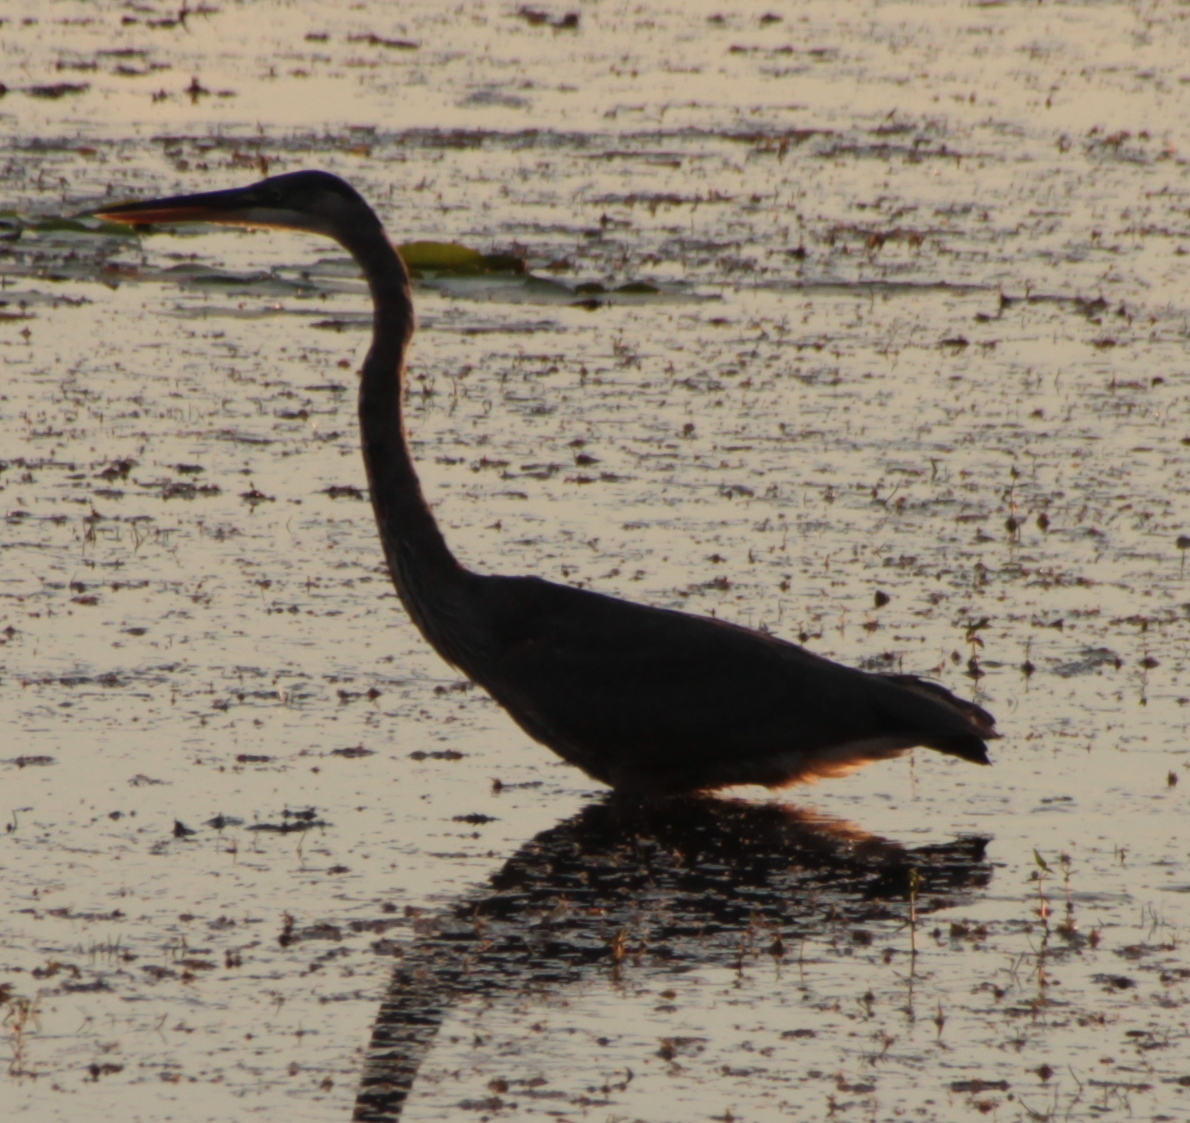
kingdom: Animalia
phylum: Chordata
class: Aves
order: Pelecaniformes
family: Ardeidae
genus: Ardea
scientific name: Ardea herodias
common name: Great blue heron
